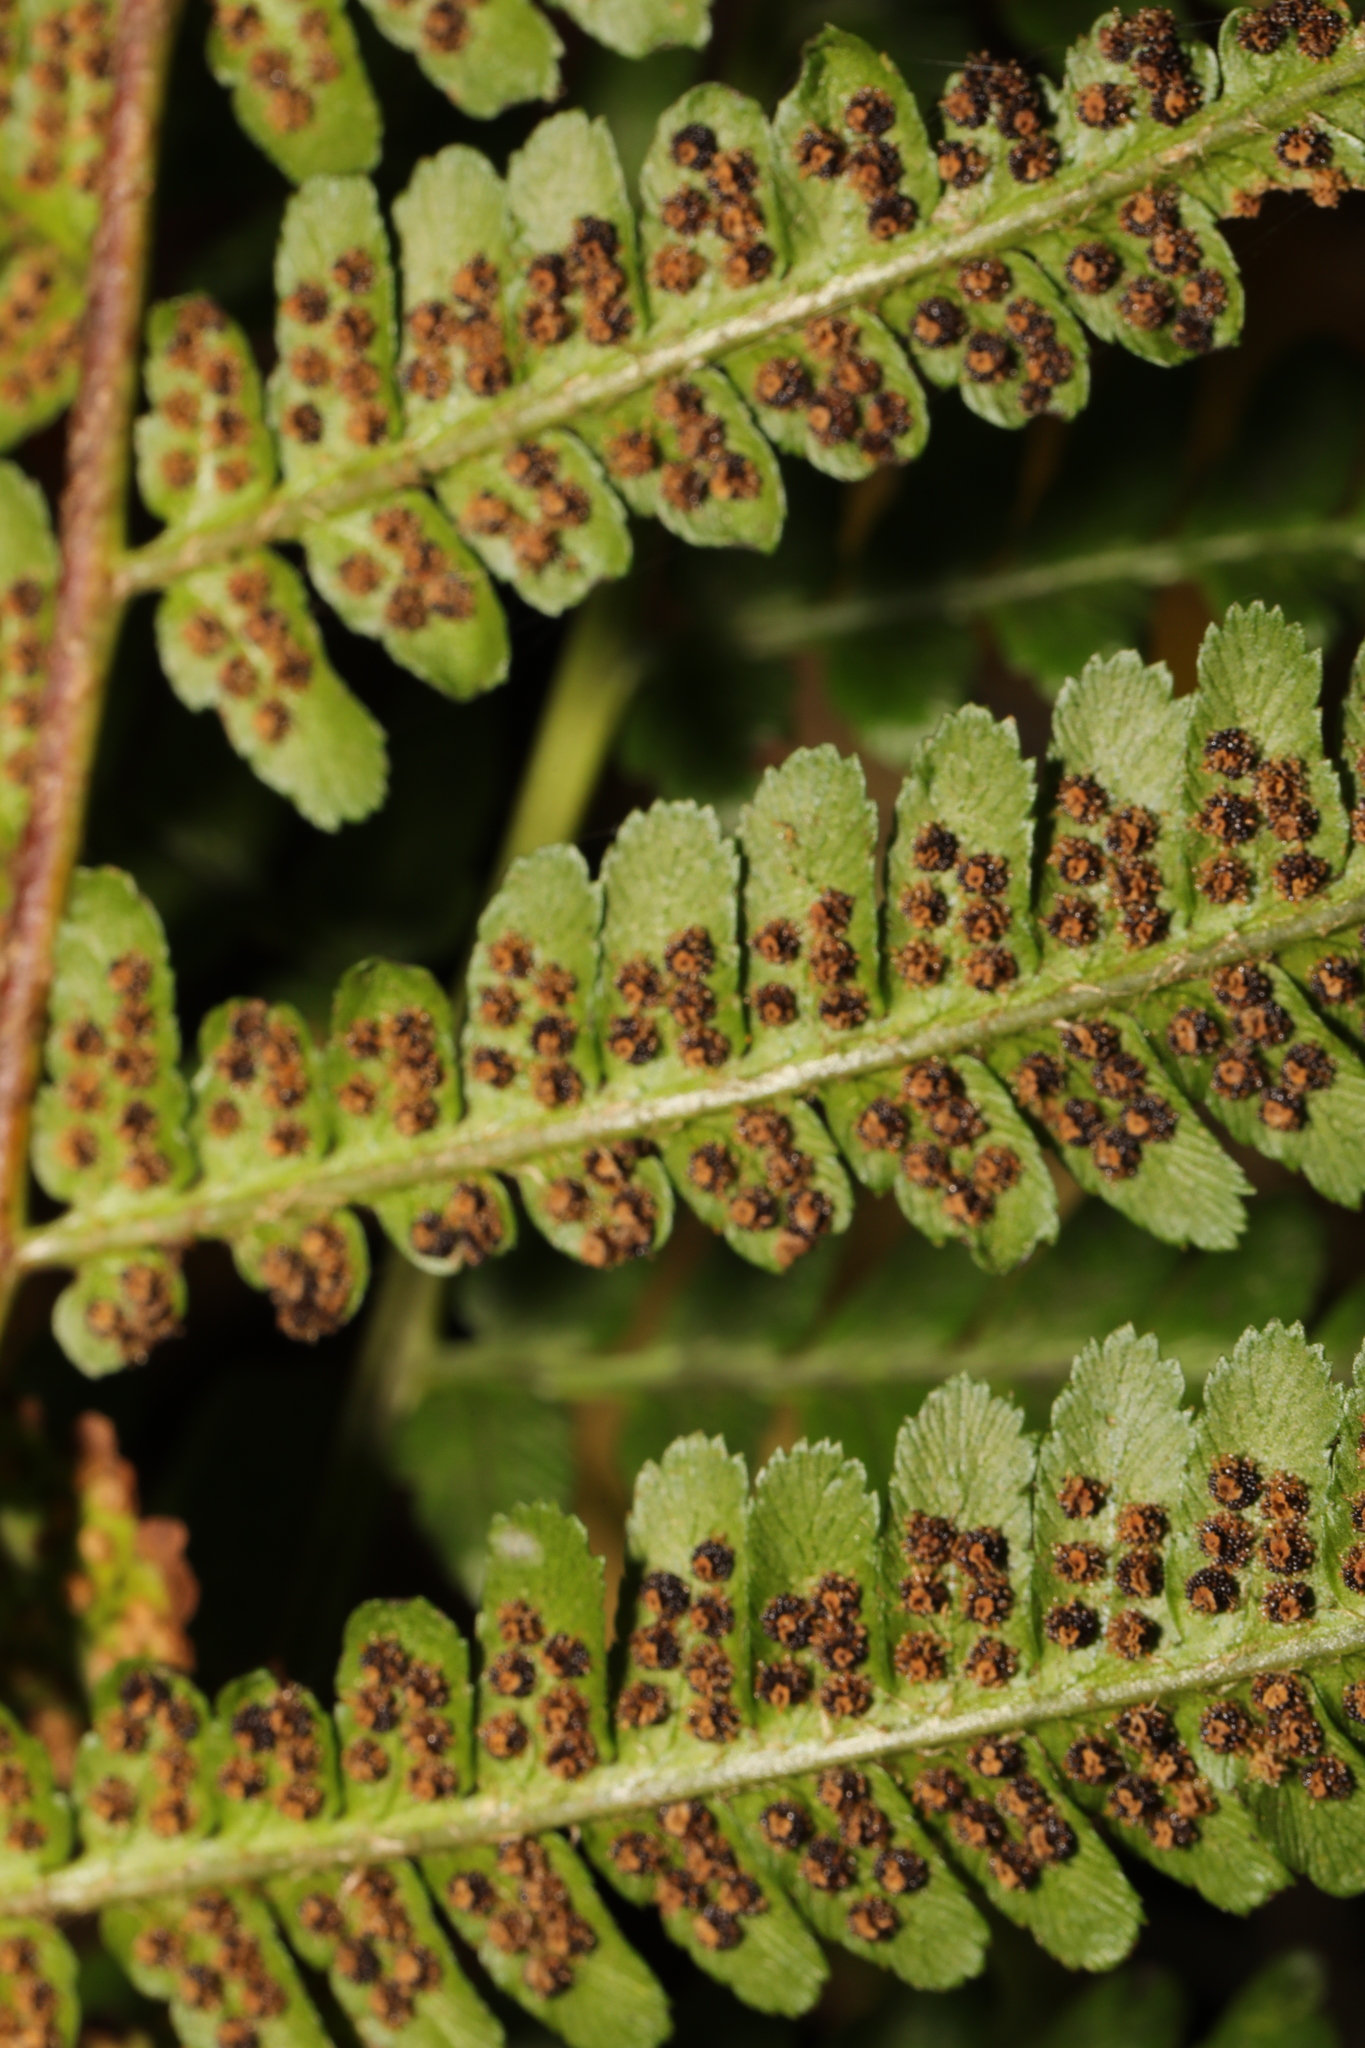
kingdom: Plantae
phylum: Tracheophyta
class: Polypodiopsida
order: Polypodiales
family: Dryopteridaceae
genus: Dryopteris
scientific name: Dryopteris filix-mas
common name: Male fern
